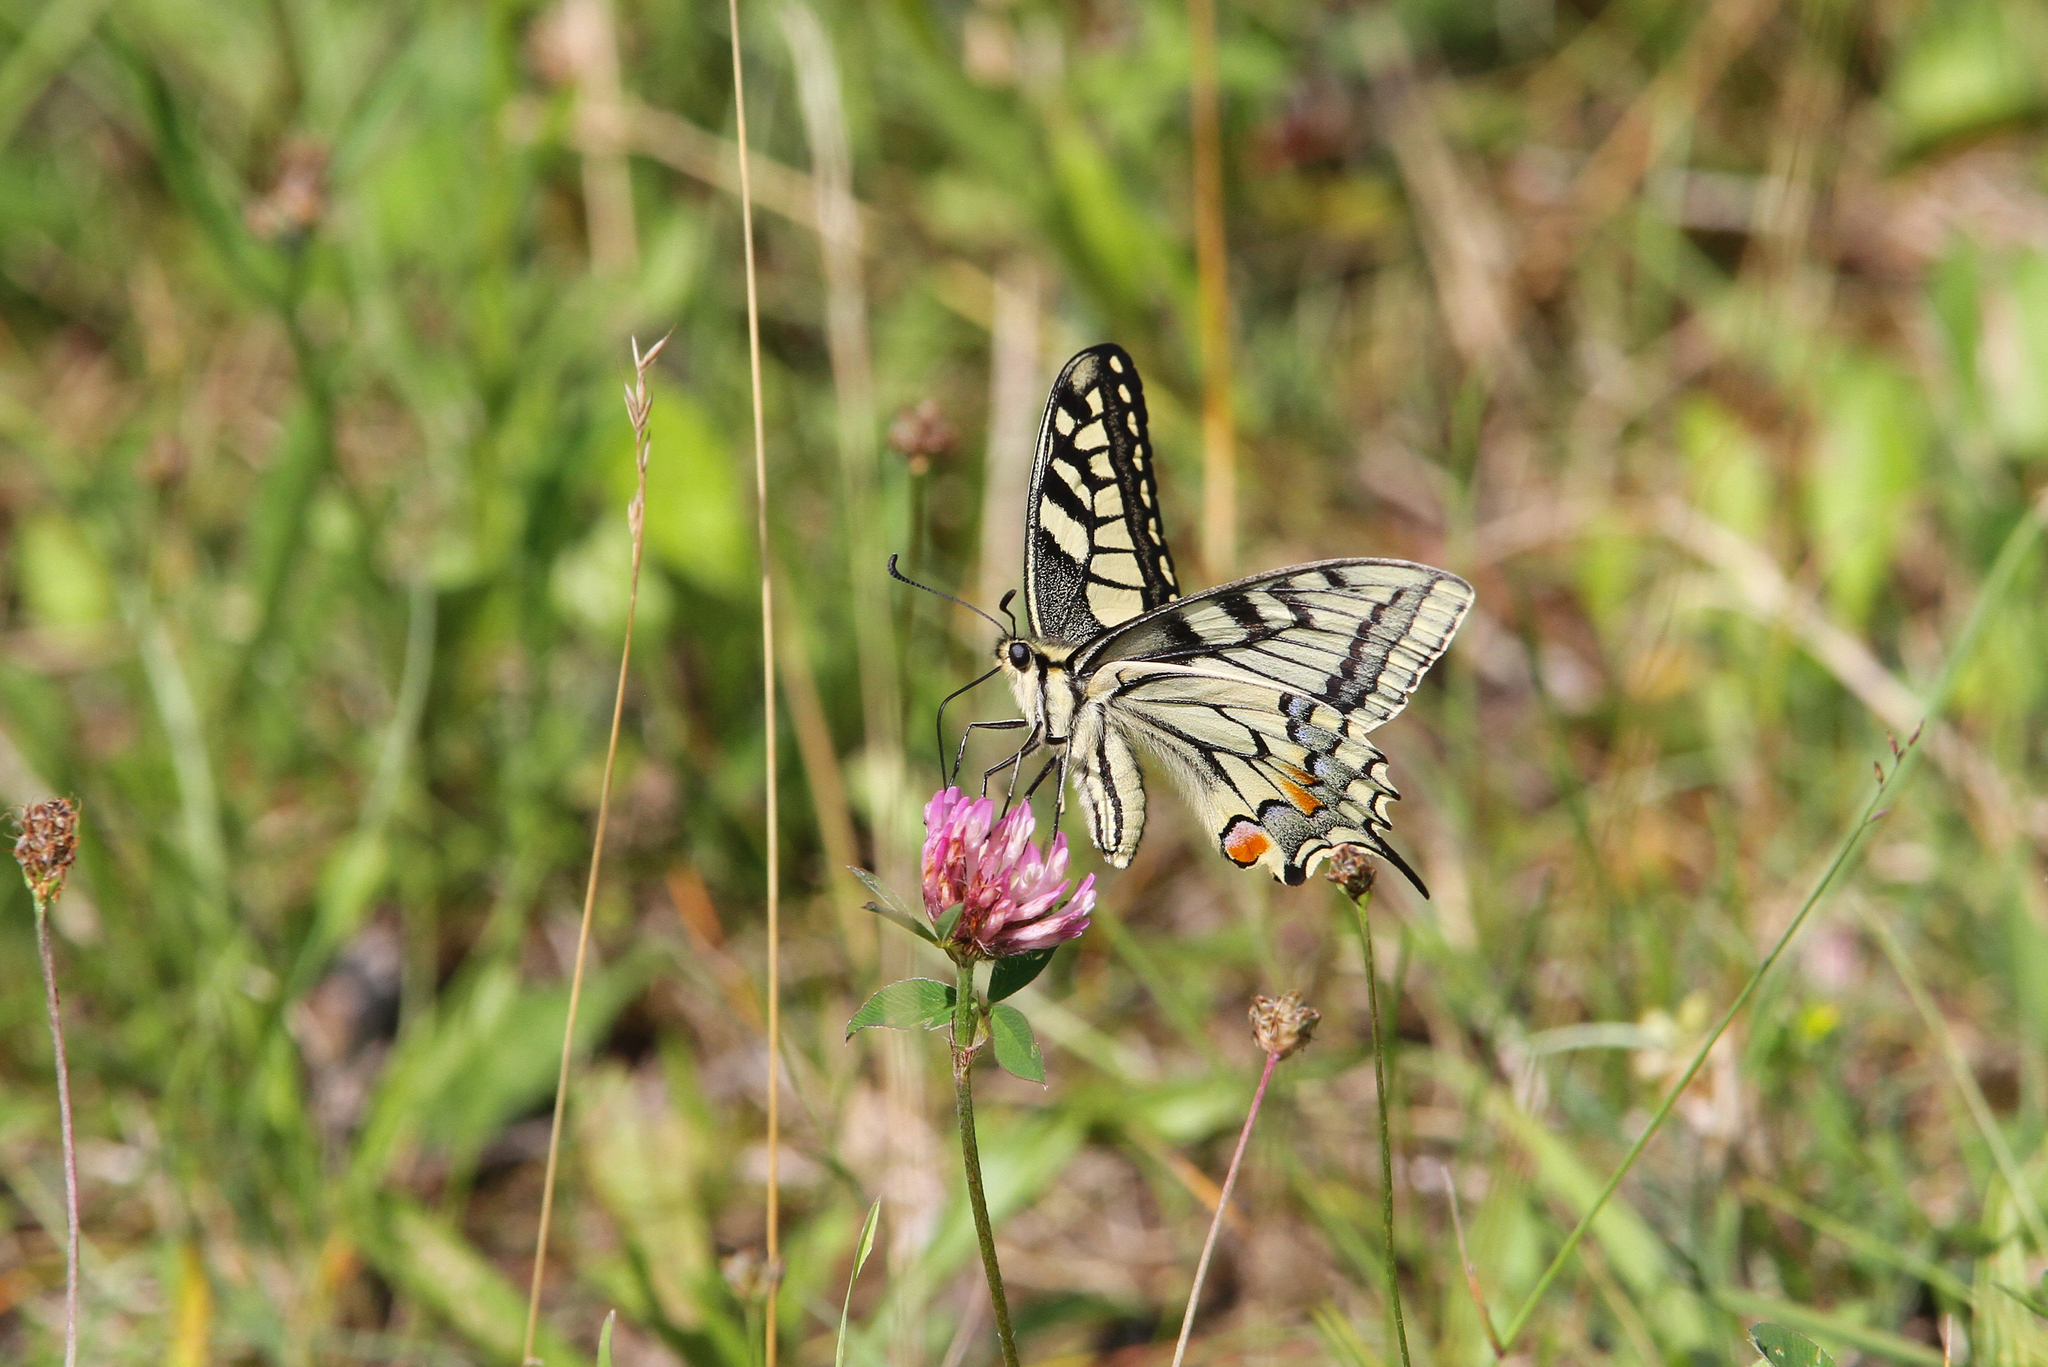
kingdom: Animalia
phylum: Arthropoda
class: Insecta
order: Lepidoptera
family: Papilionidae
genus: Papilio
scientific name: Papilio machaon
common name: Swallowtail
